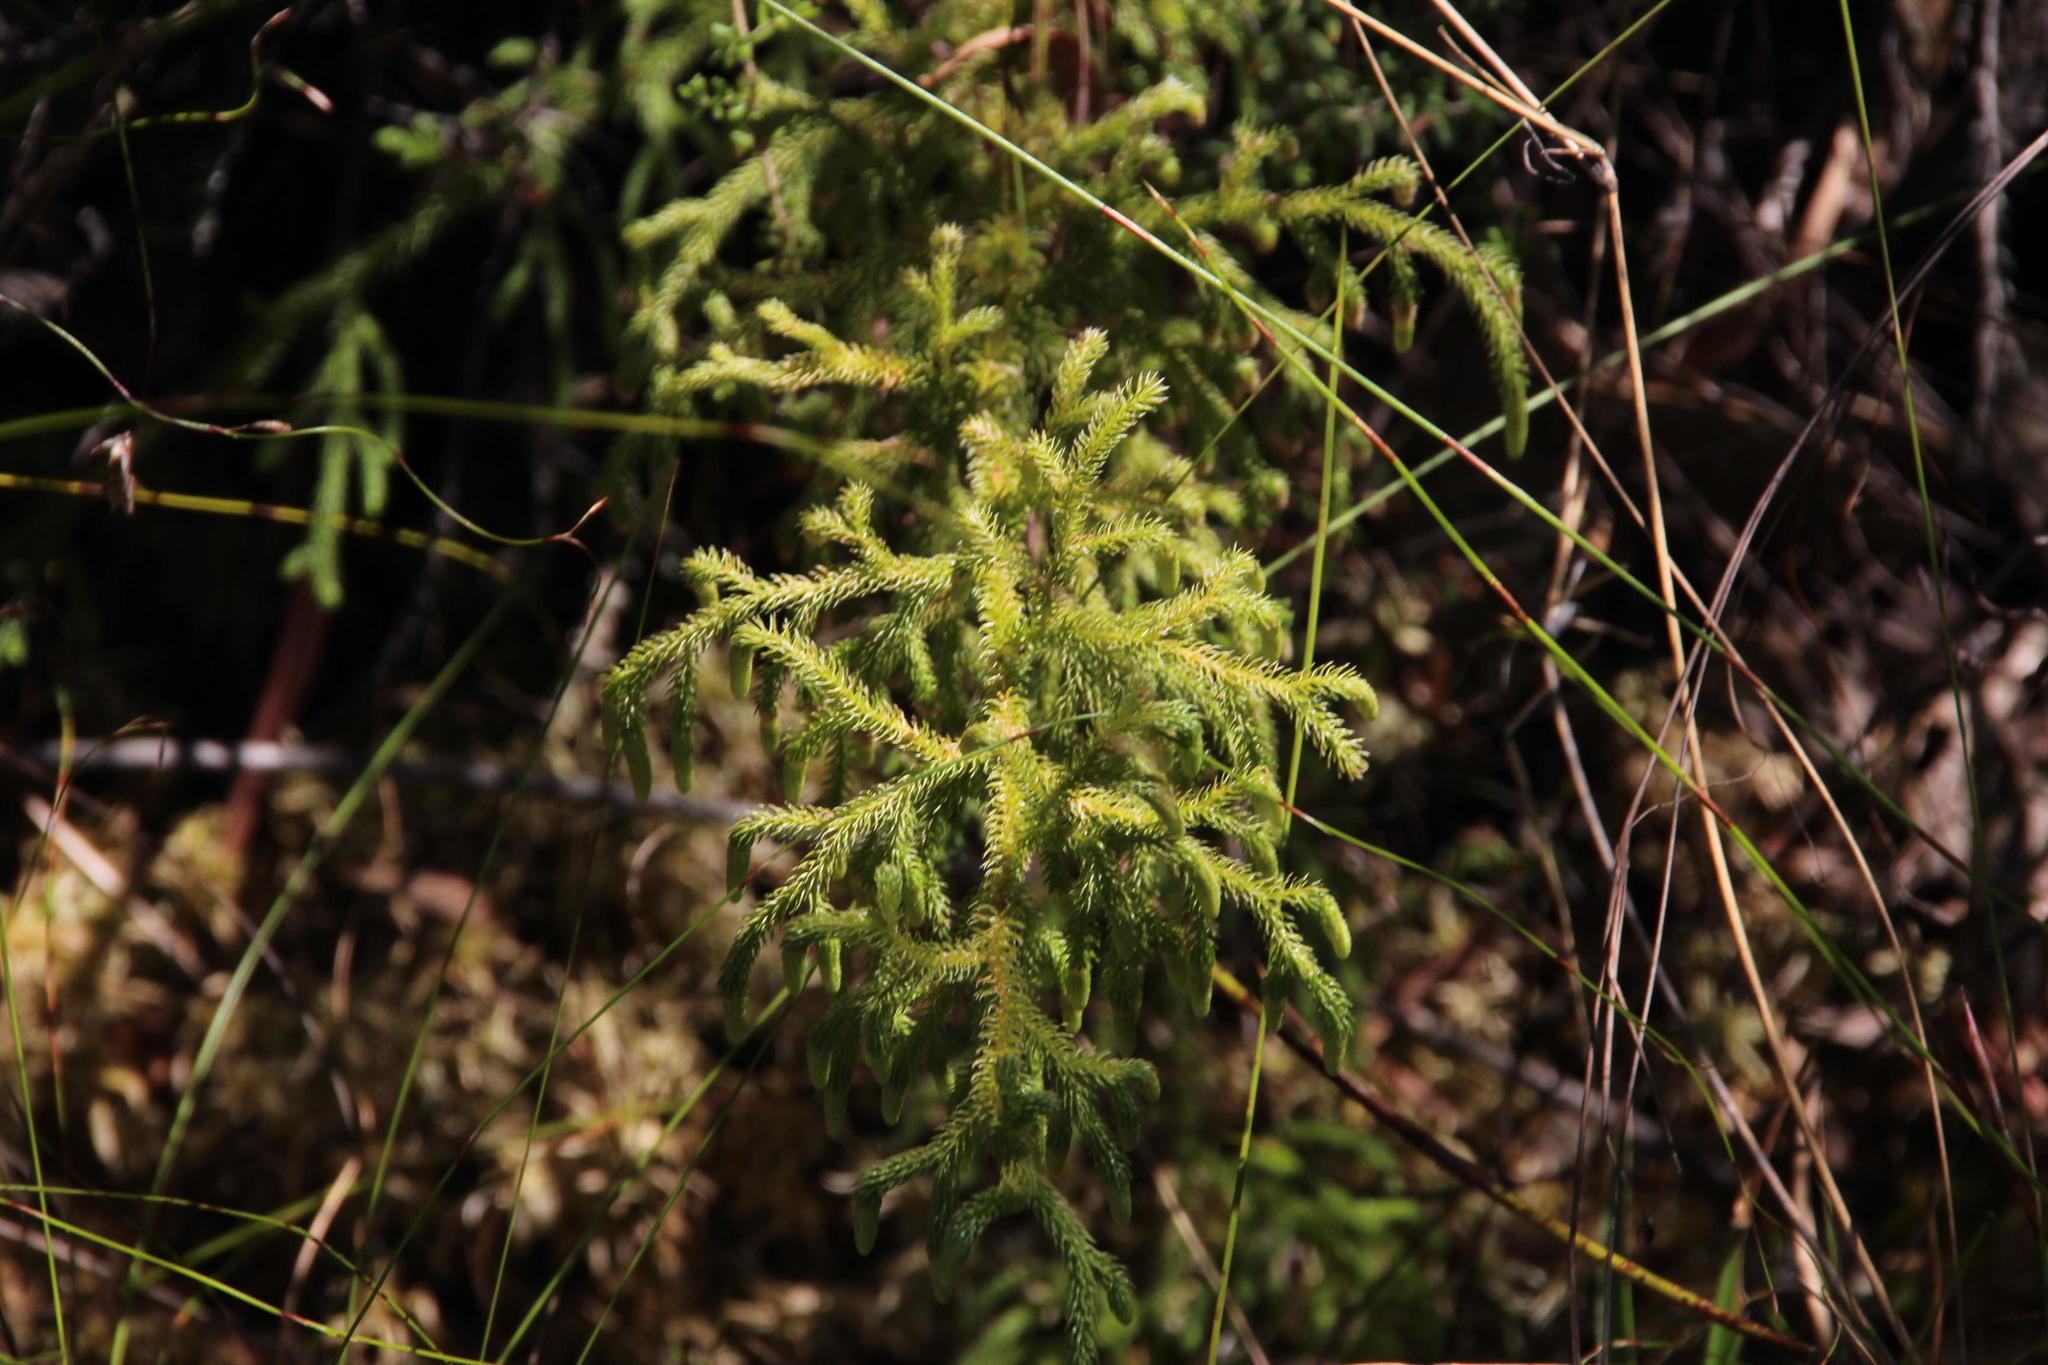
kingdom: Plantae
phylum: Tracheophyta
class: Lycopodiopsida
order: Lycopodiales
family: Lycopodiaceae
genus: Palhinhaea
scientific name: Palhinhaea cernua
